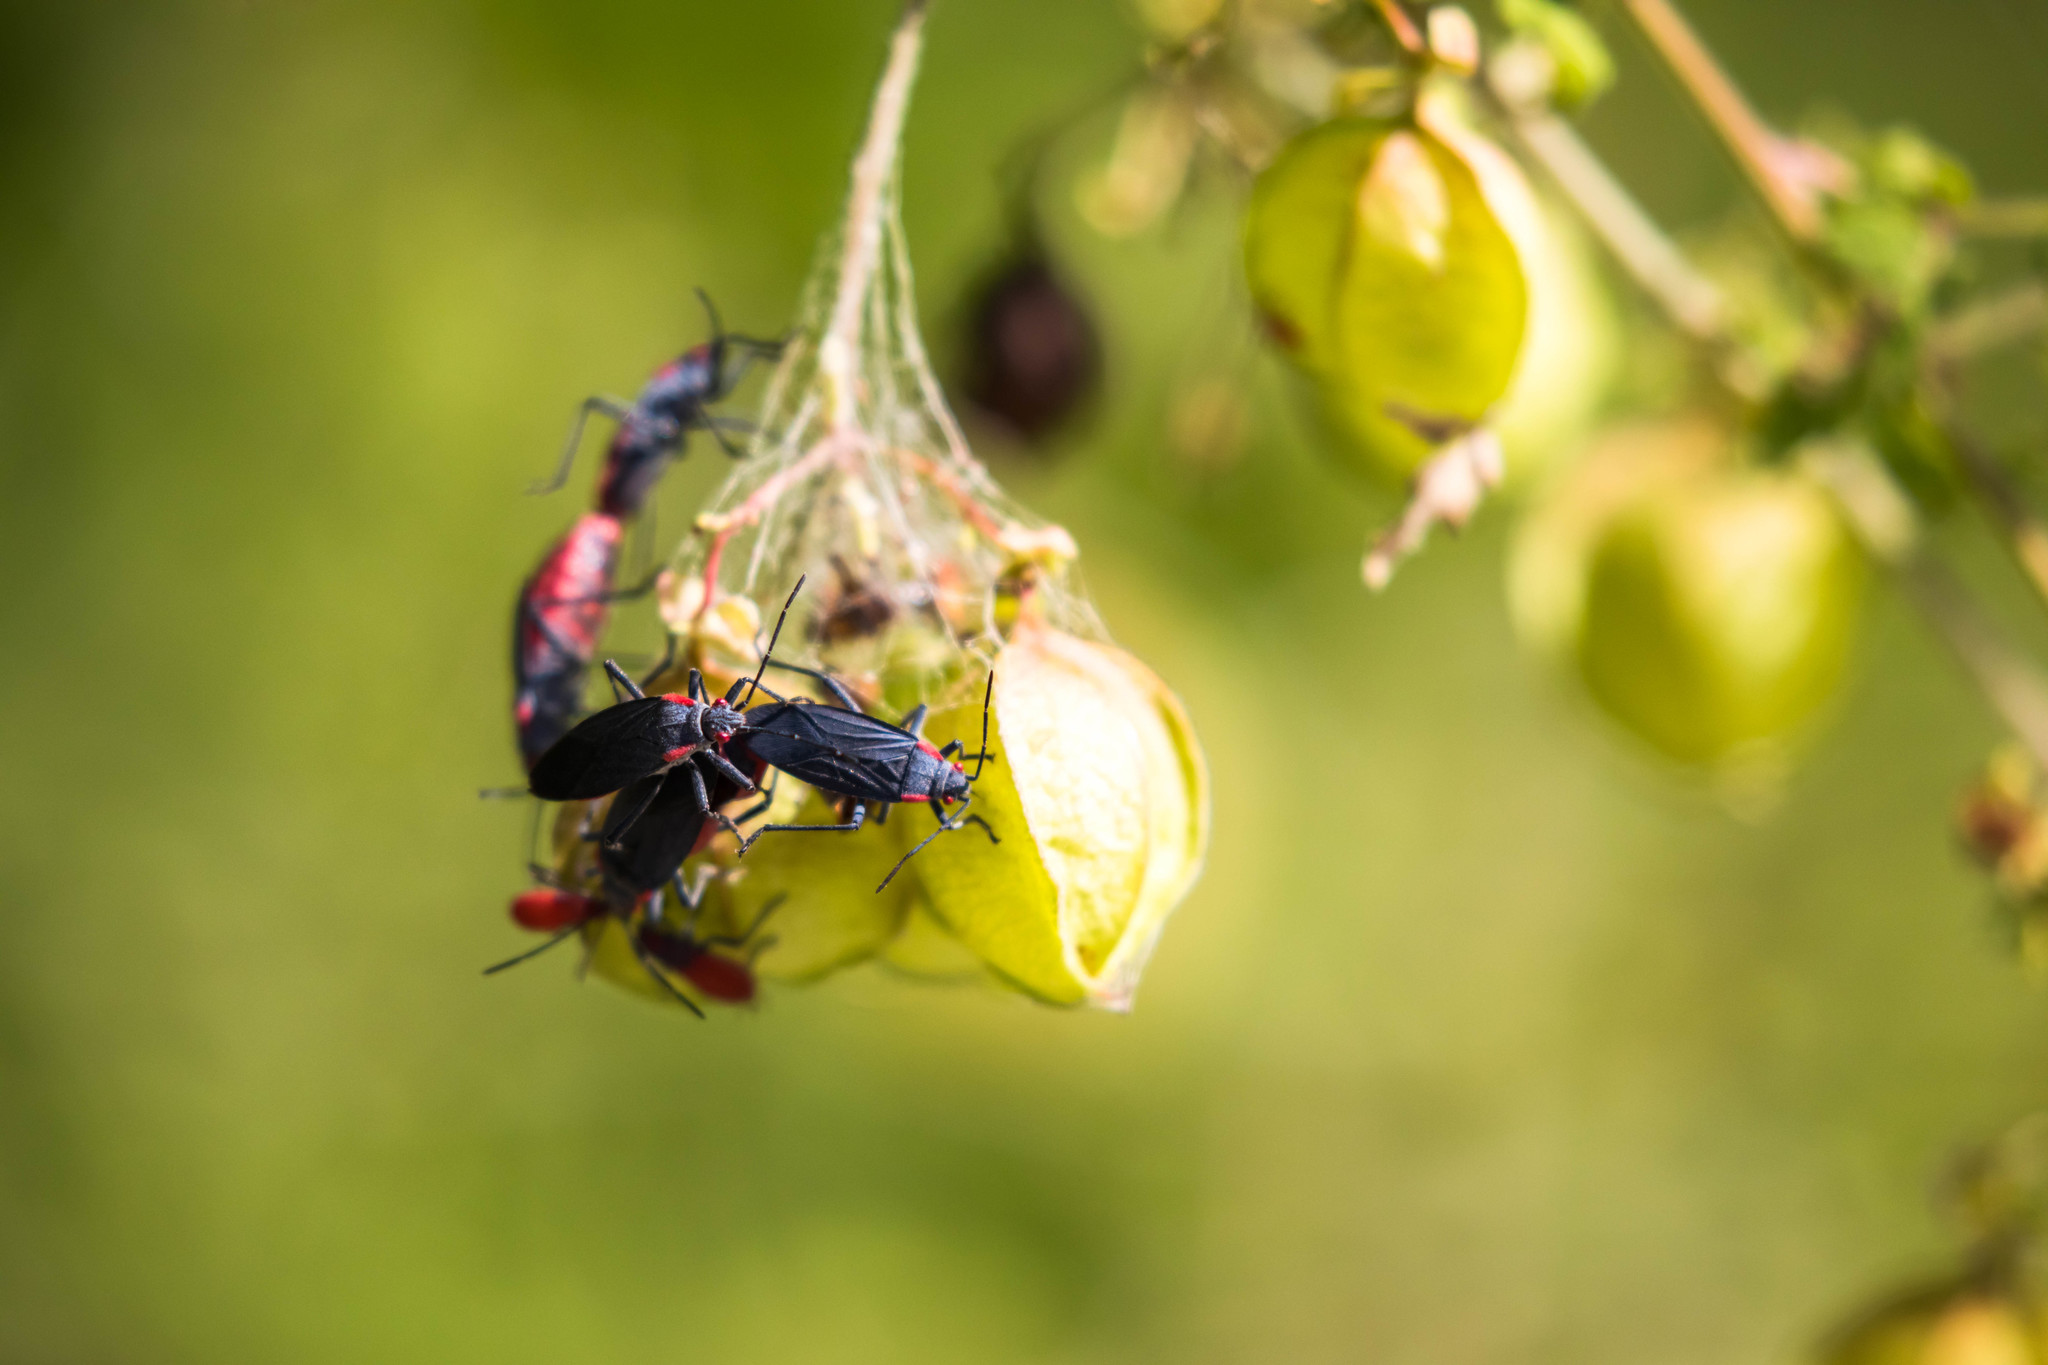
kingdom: Animalia
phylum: Arthropoda
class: Insecta
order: Hemiptera
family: Rhopalidae
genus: Jadera
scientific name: Jadera haematoloma
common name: Red-shouldered bug
